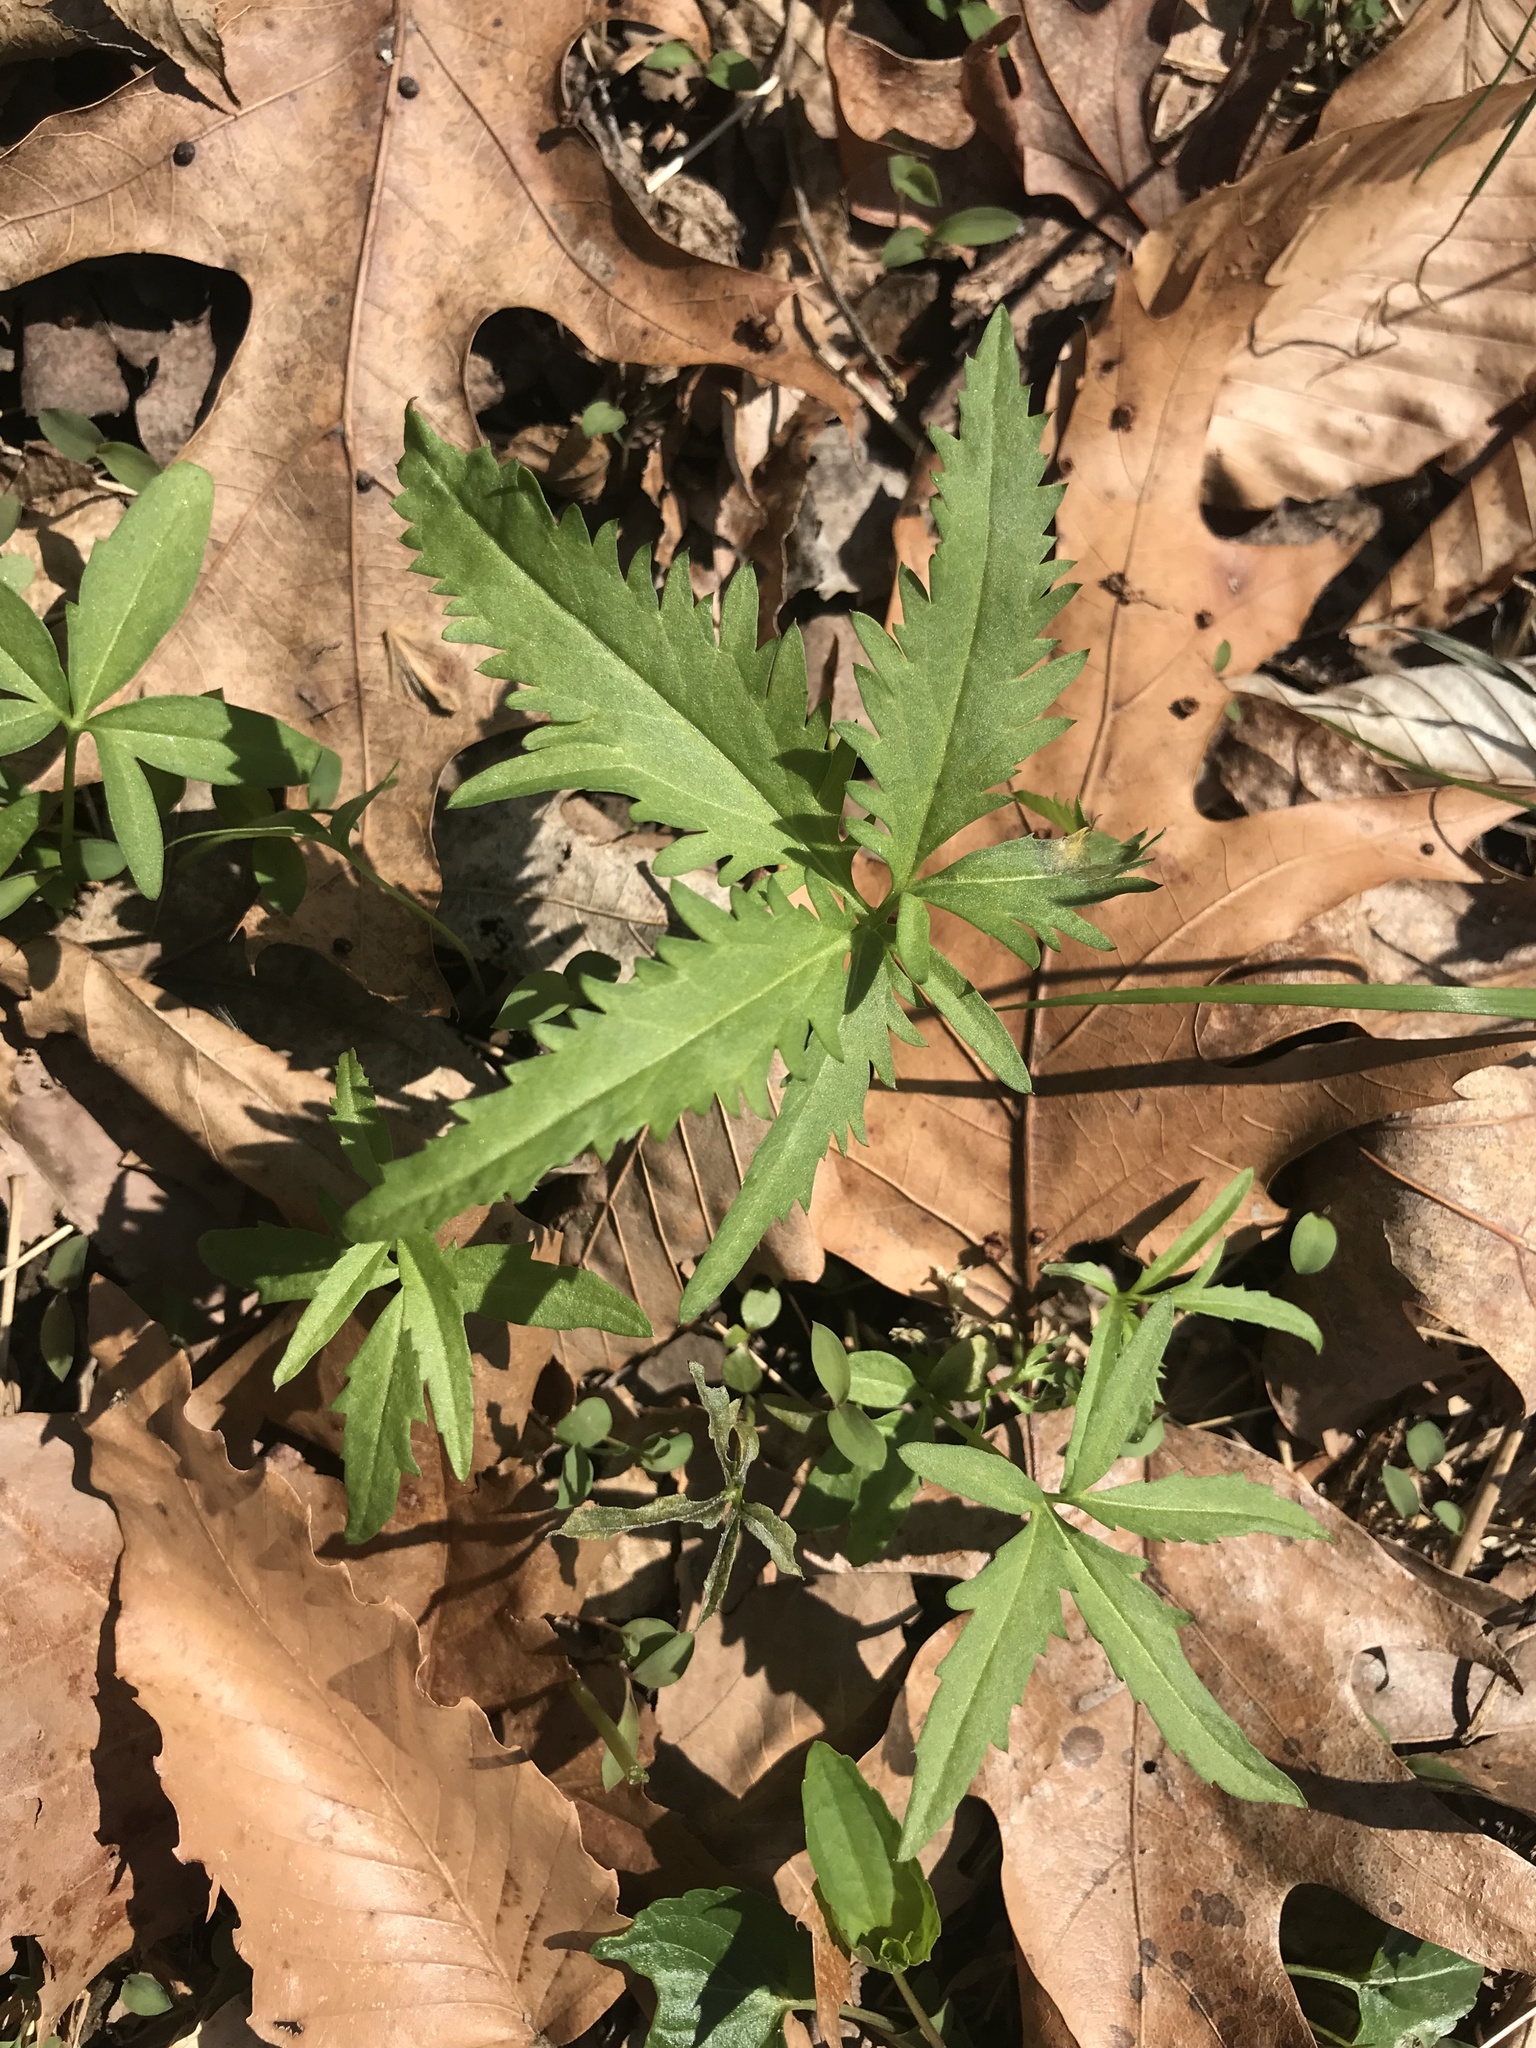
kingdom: Plantae
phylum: Tracheophyta
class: Magnoliopsida
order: Brassicales
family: Brassicaceae
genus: Cardamine
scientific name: Cardamine concatenata
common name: Cut-leaf toothcup
